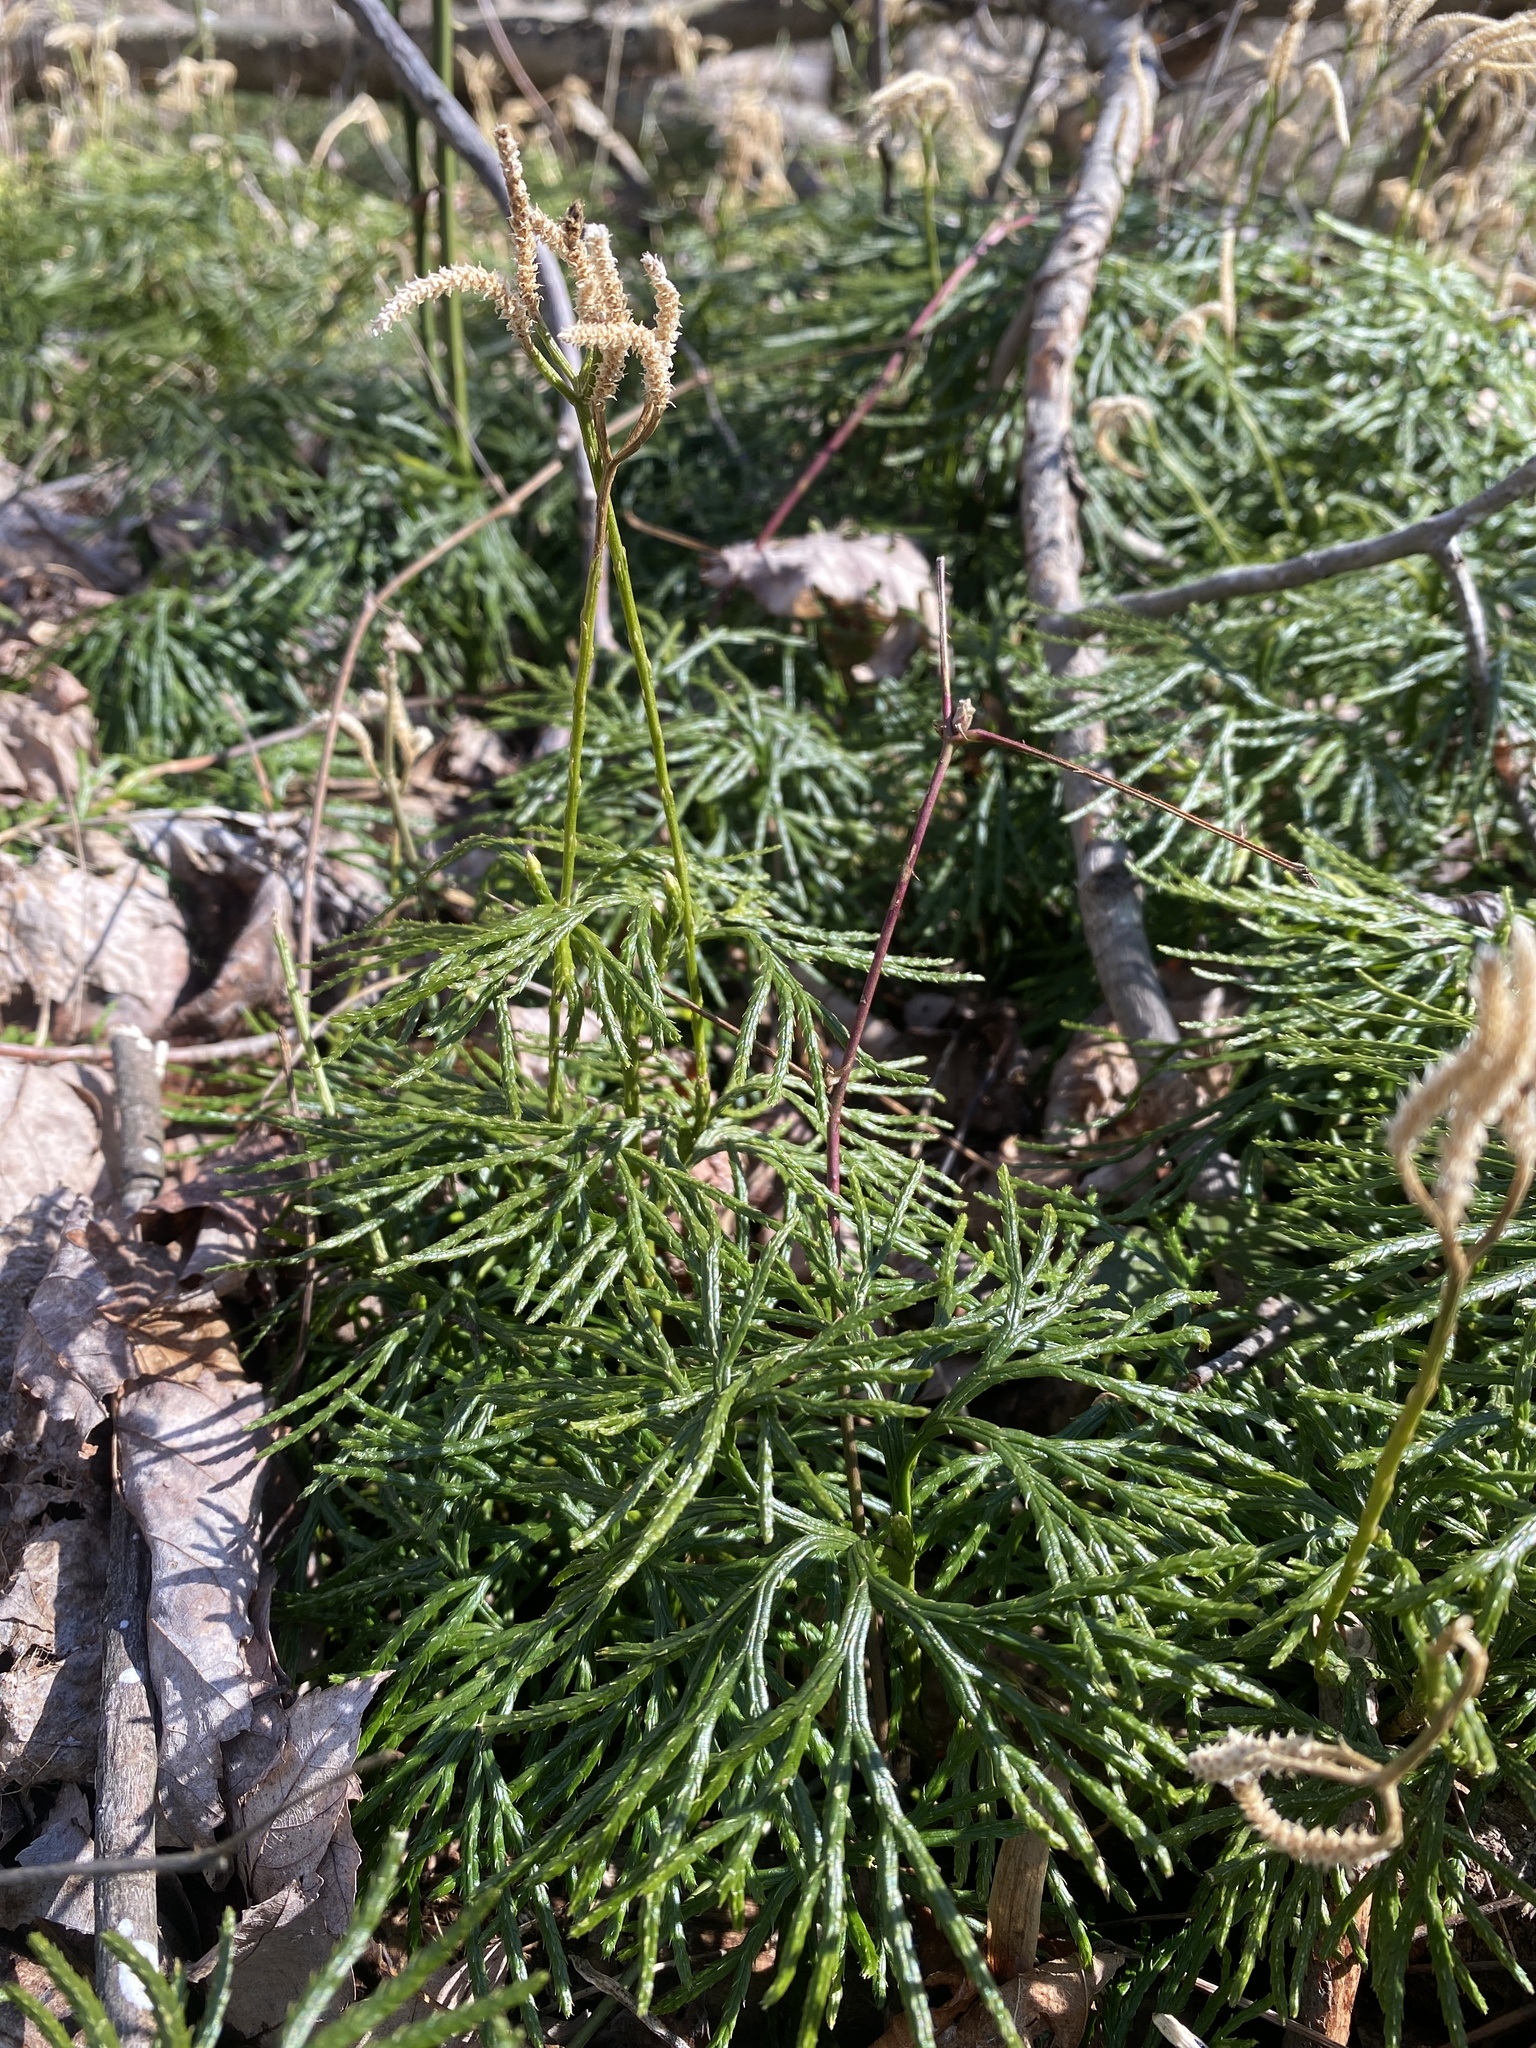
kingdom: Plantae
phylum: Tracheophyta
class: Lycopodiopsida
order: Lycopodiales
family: Lycopodiaceae
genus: Diphasiastrum
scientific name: Diphasiastrum digitatum
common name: Southern running-pine
